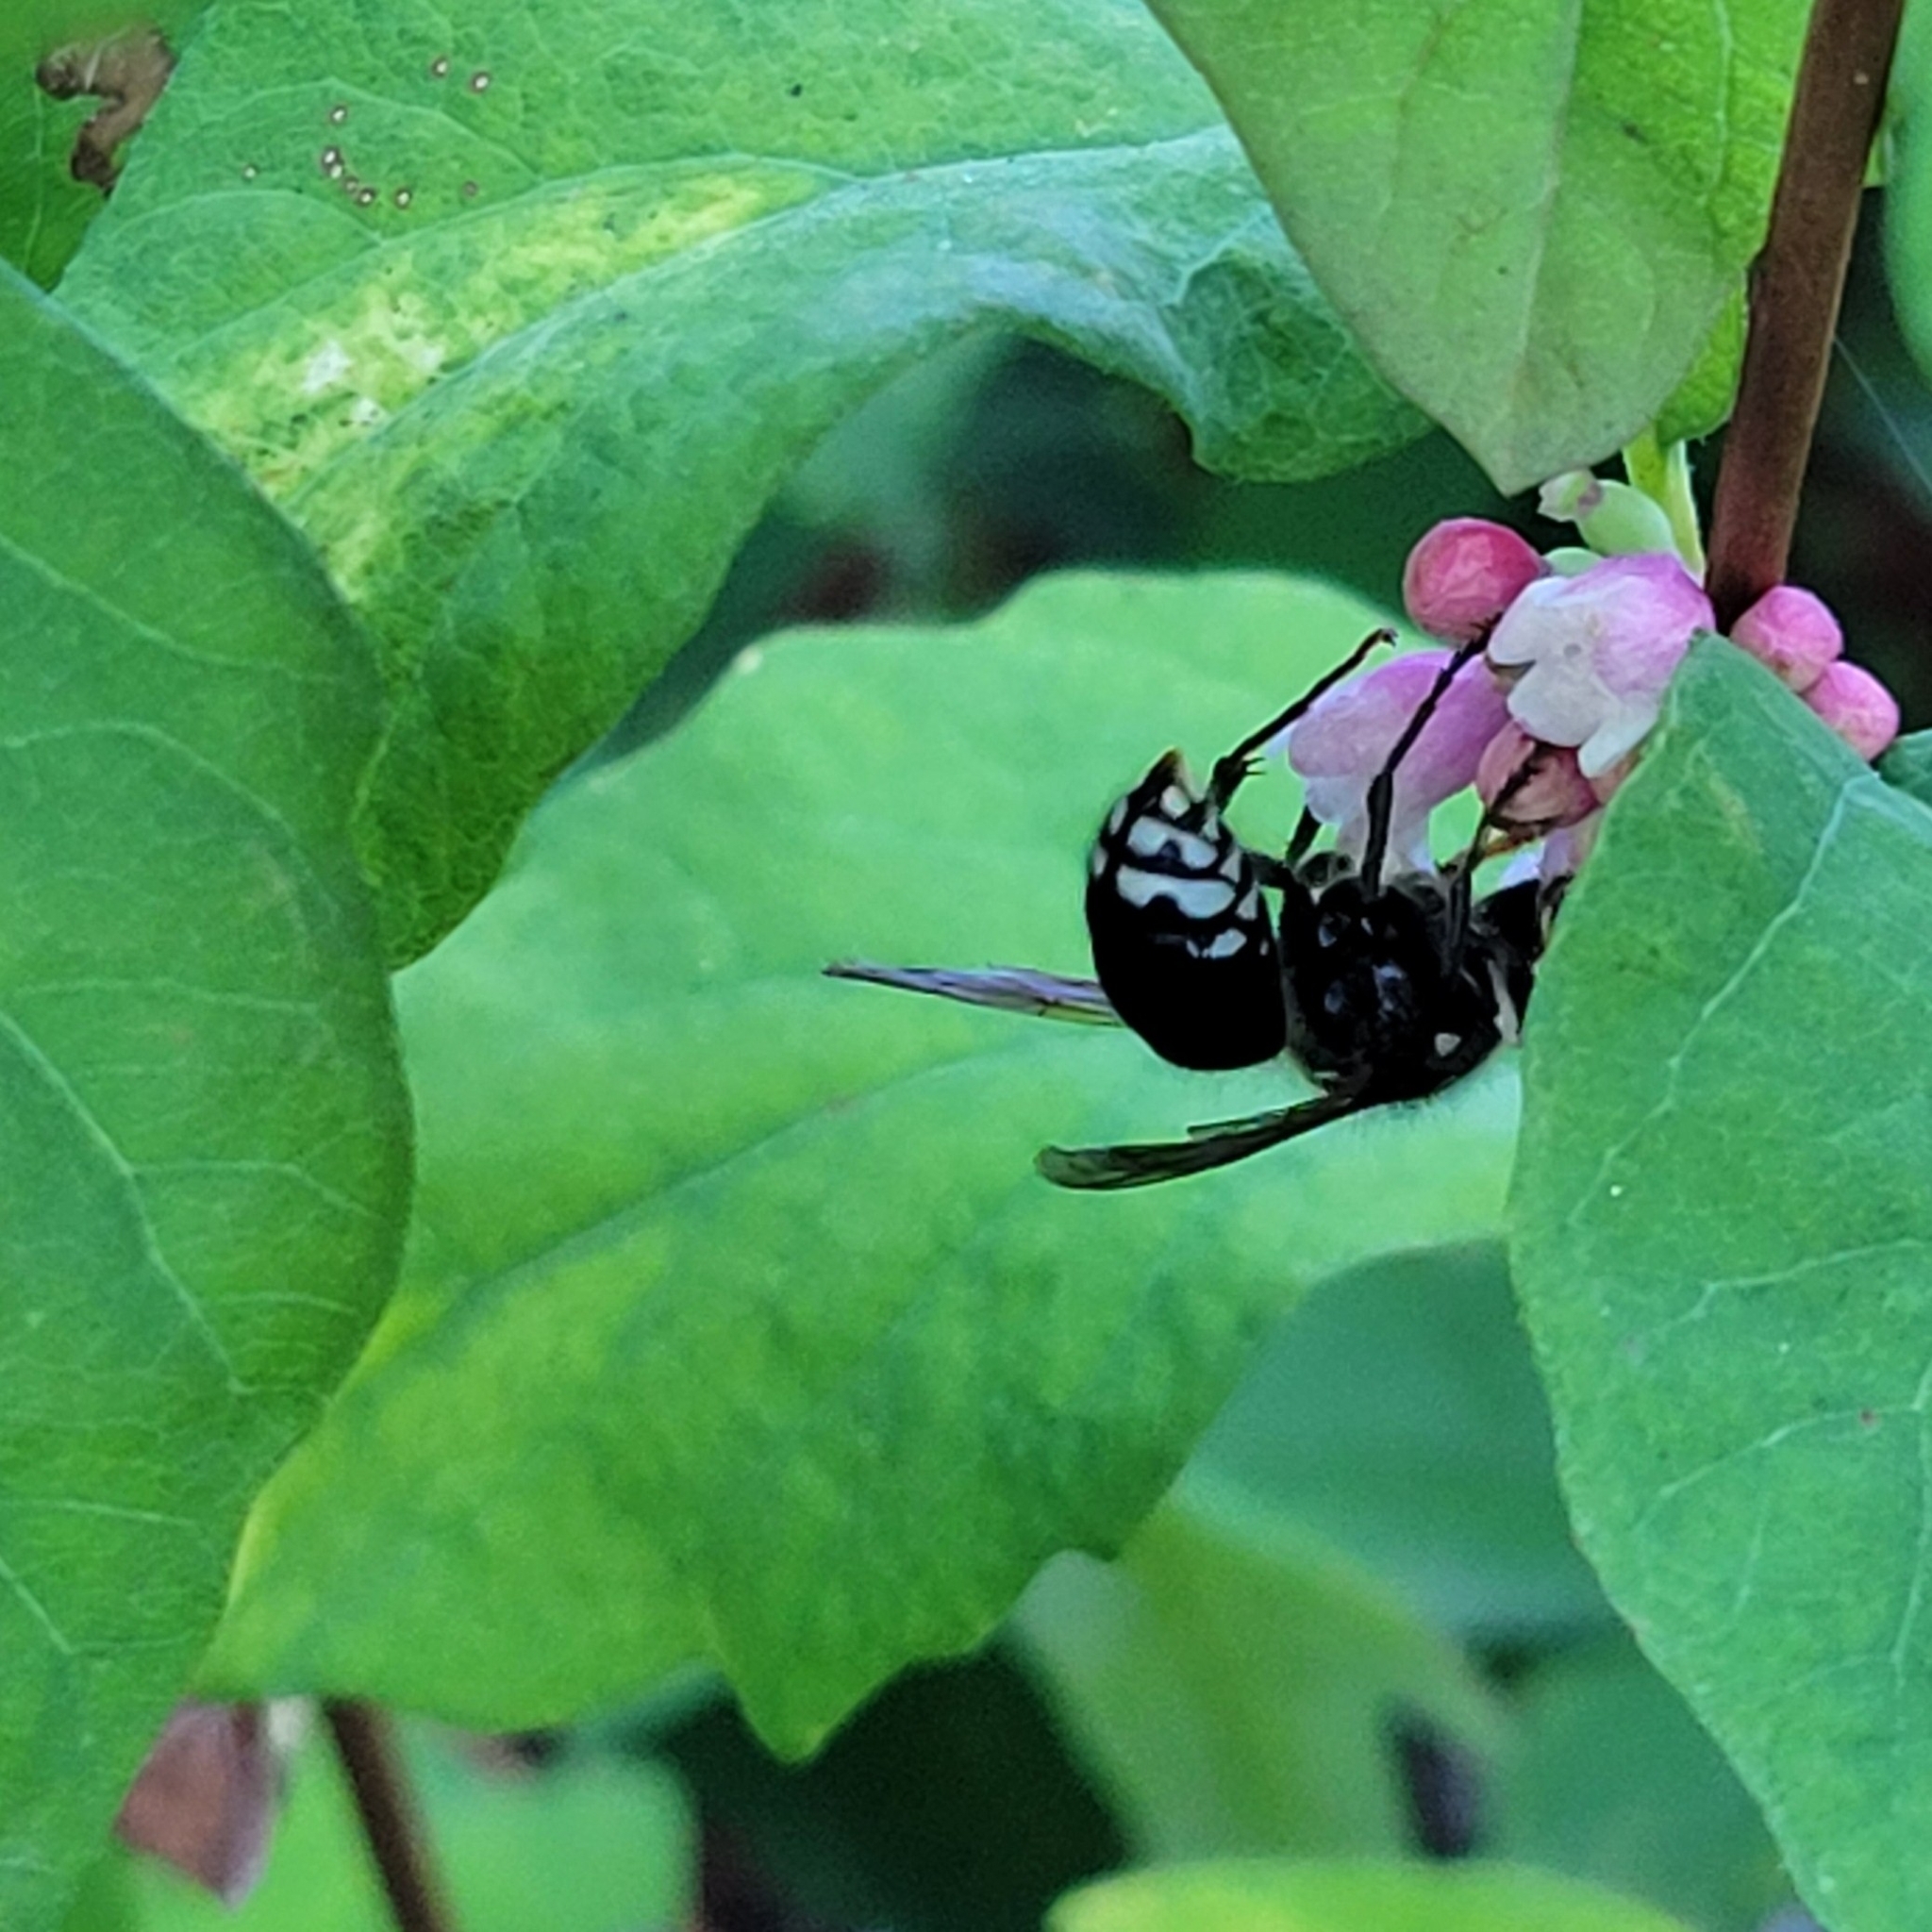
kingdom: Animalia
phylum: Arthropoda
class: Insecta
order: Hymenoptera
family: Vespidae
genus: Dolichovespula
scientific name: Dolichovespula maculata
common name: Bald-faced hornet
